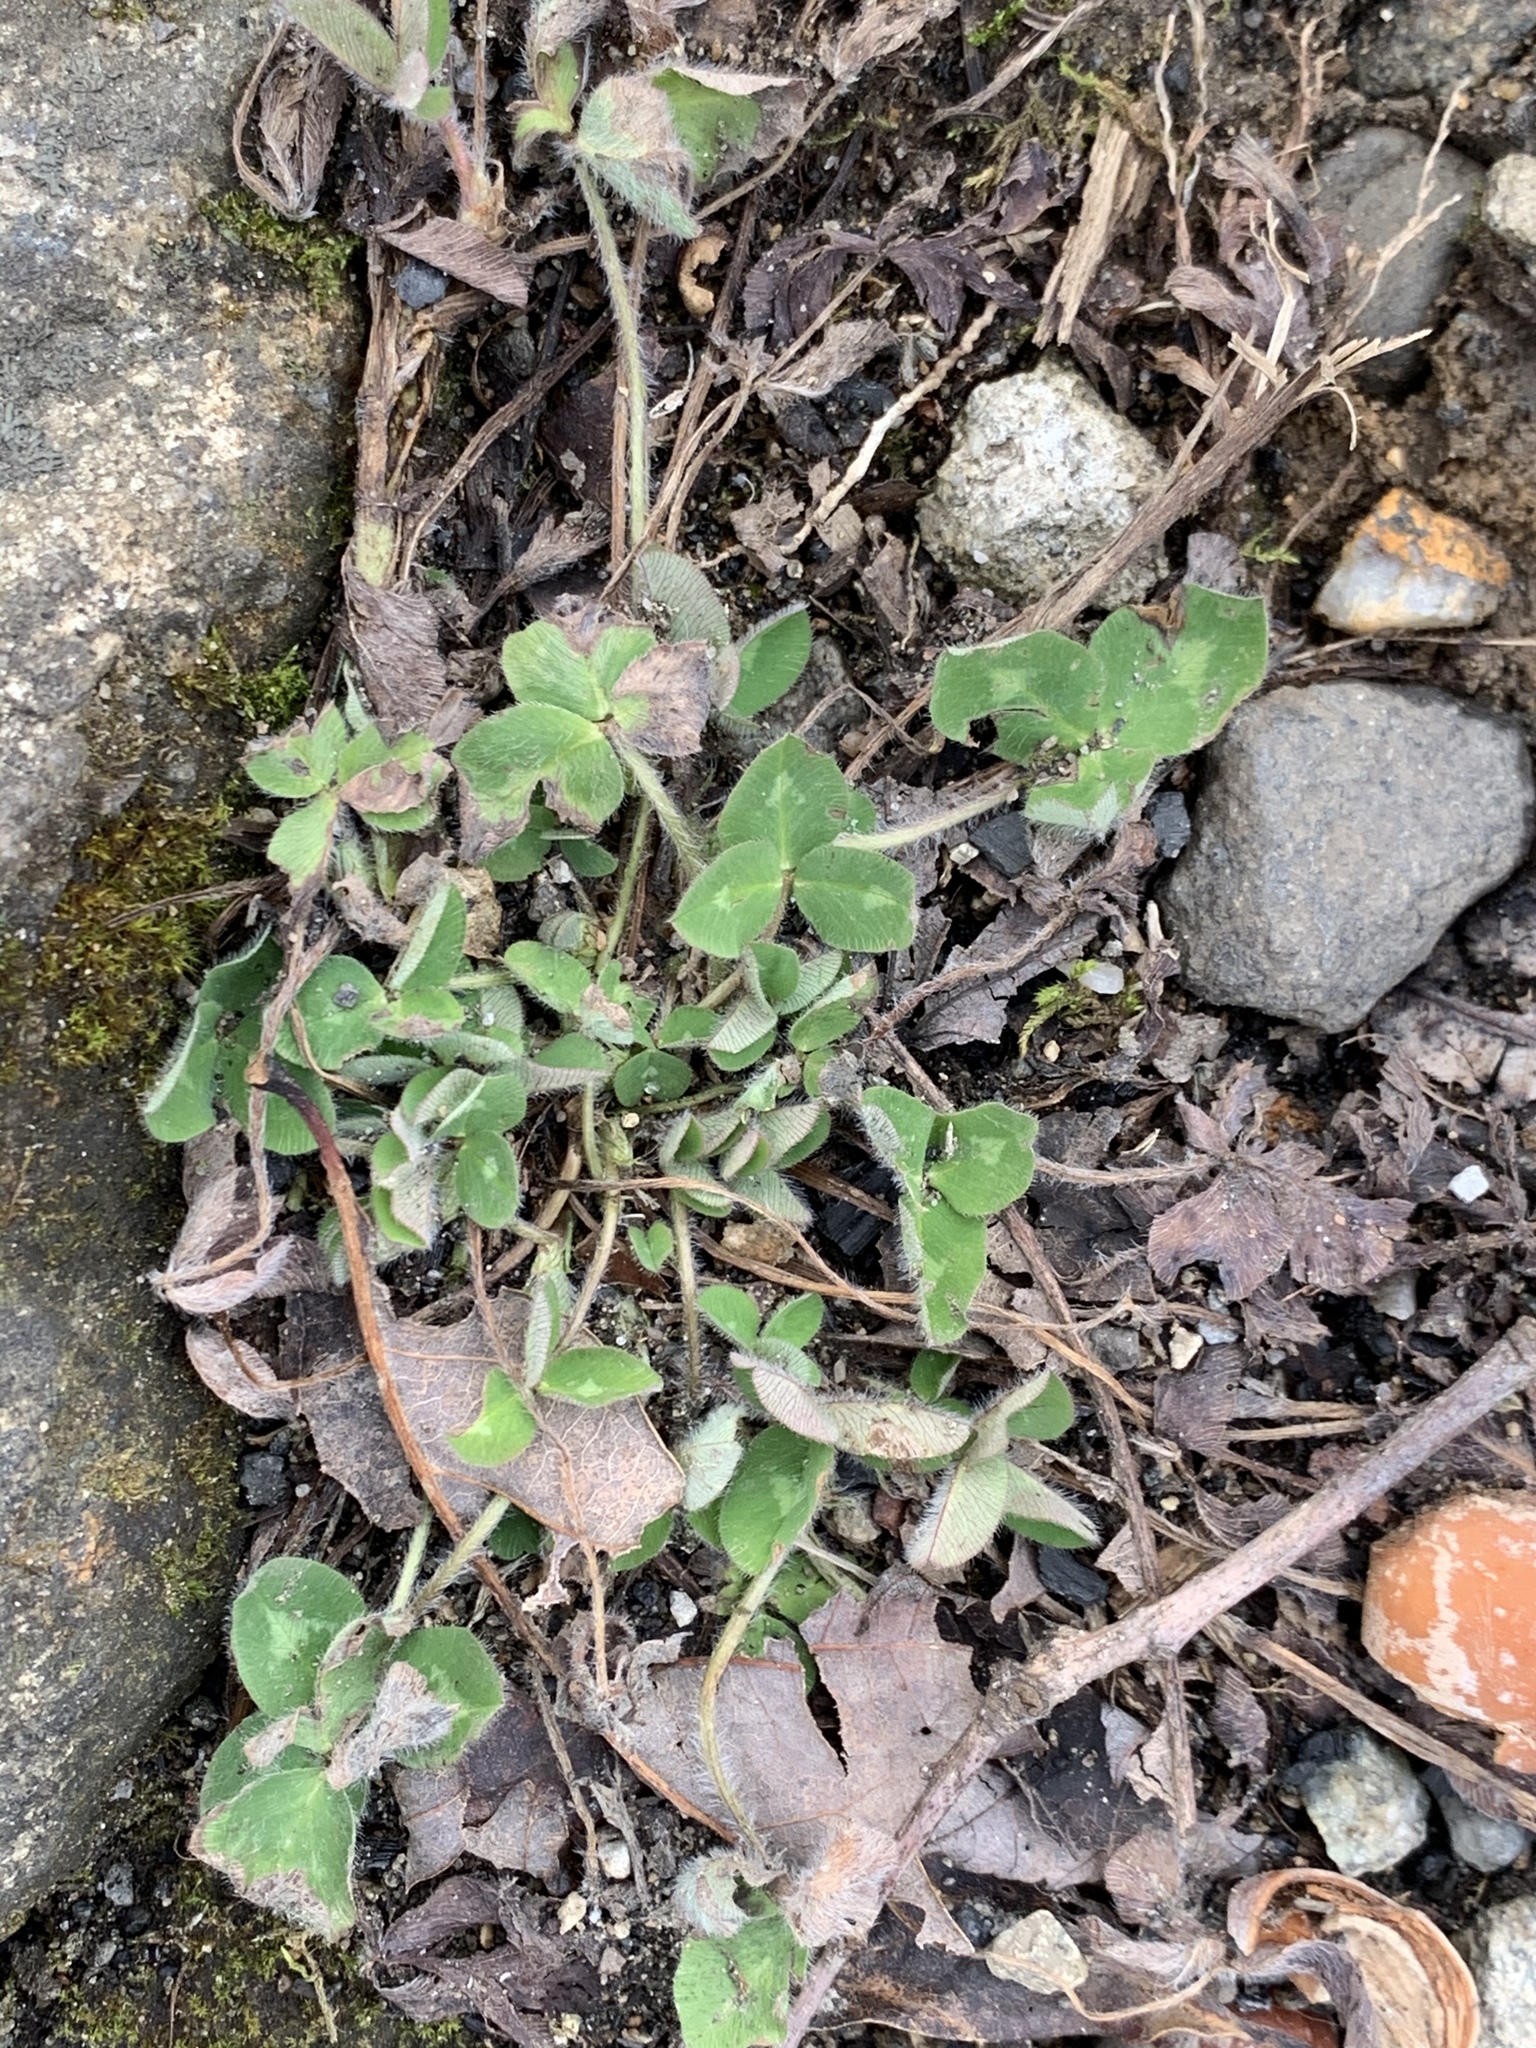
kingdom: Plantae
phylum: Tracheophyta
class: Magnoliopsida
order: Fabales
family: Fabaceae
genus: Trifolium
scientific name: Trifolium pratense
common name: Red clover
